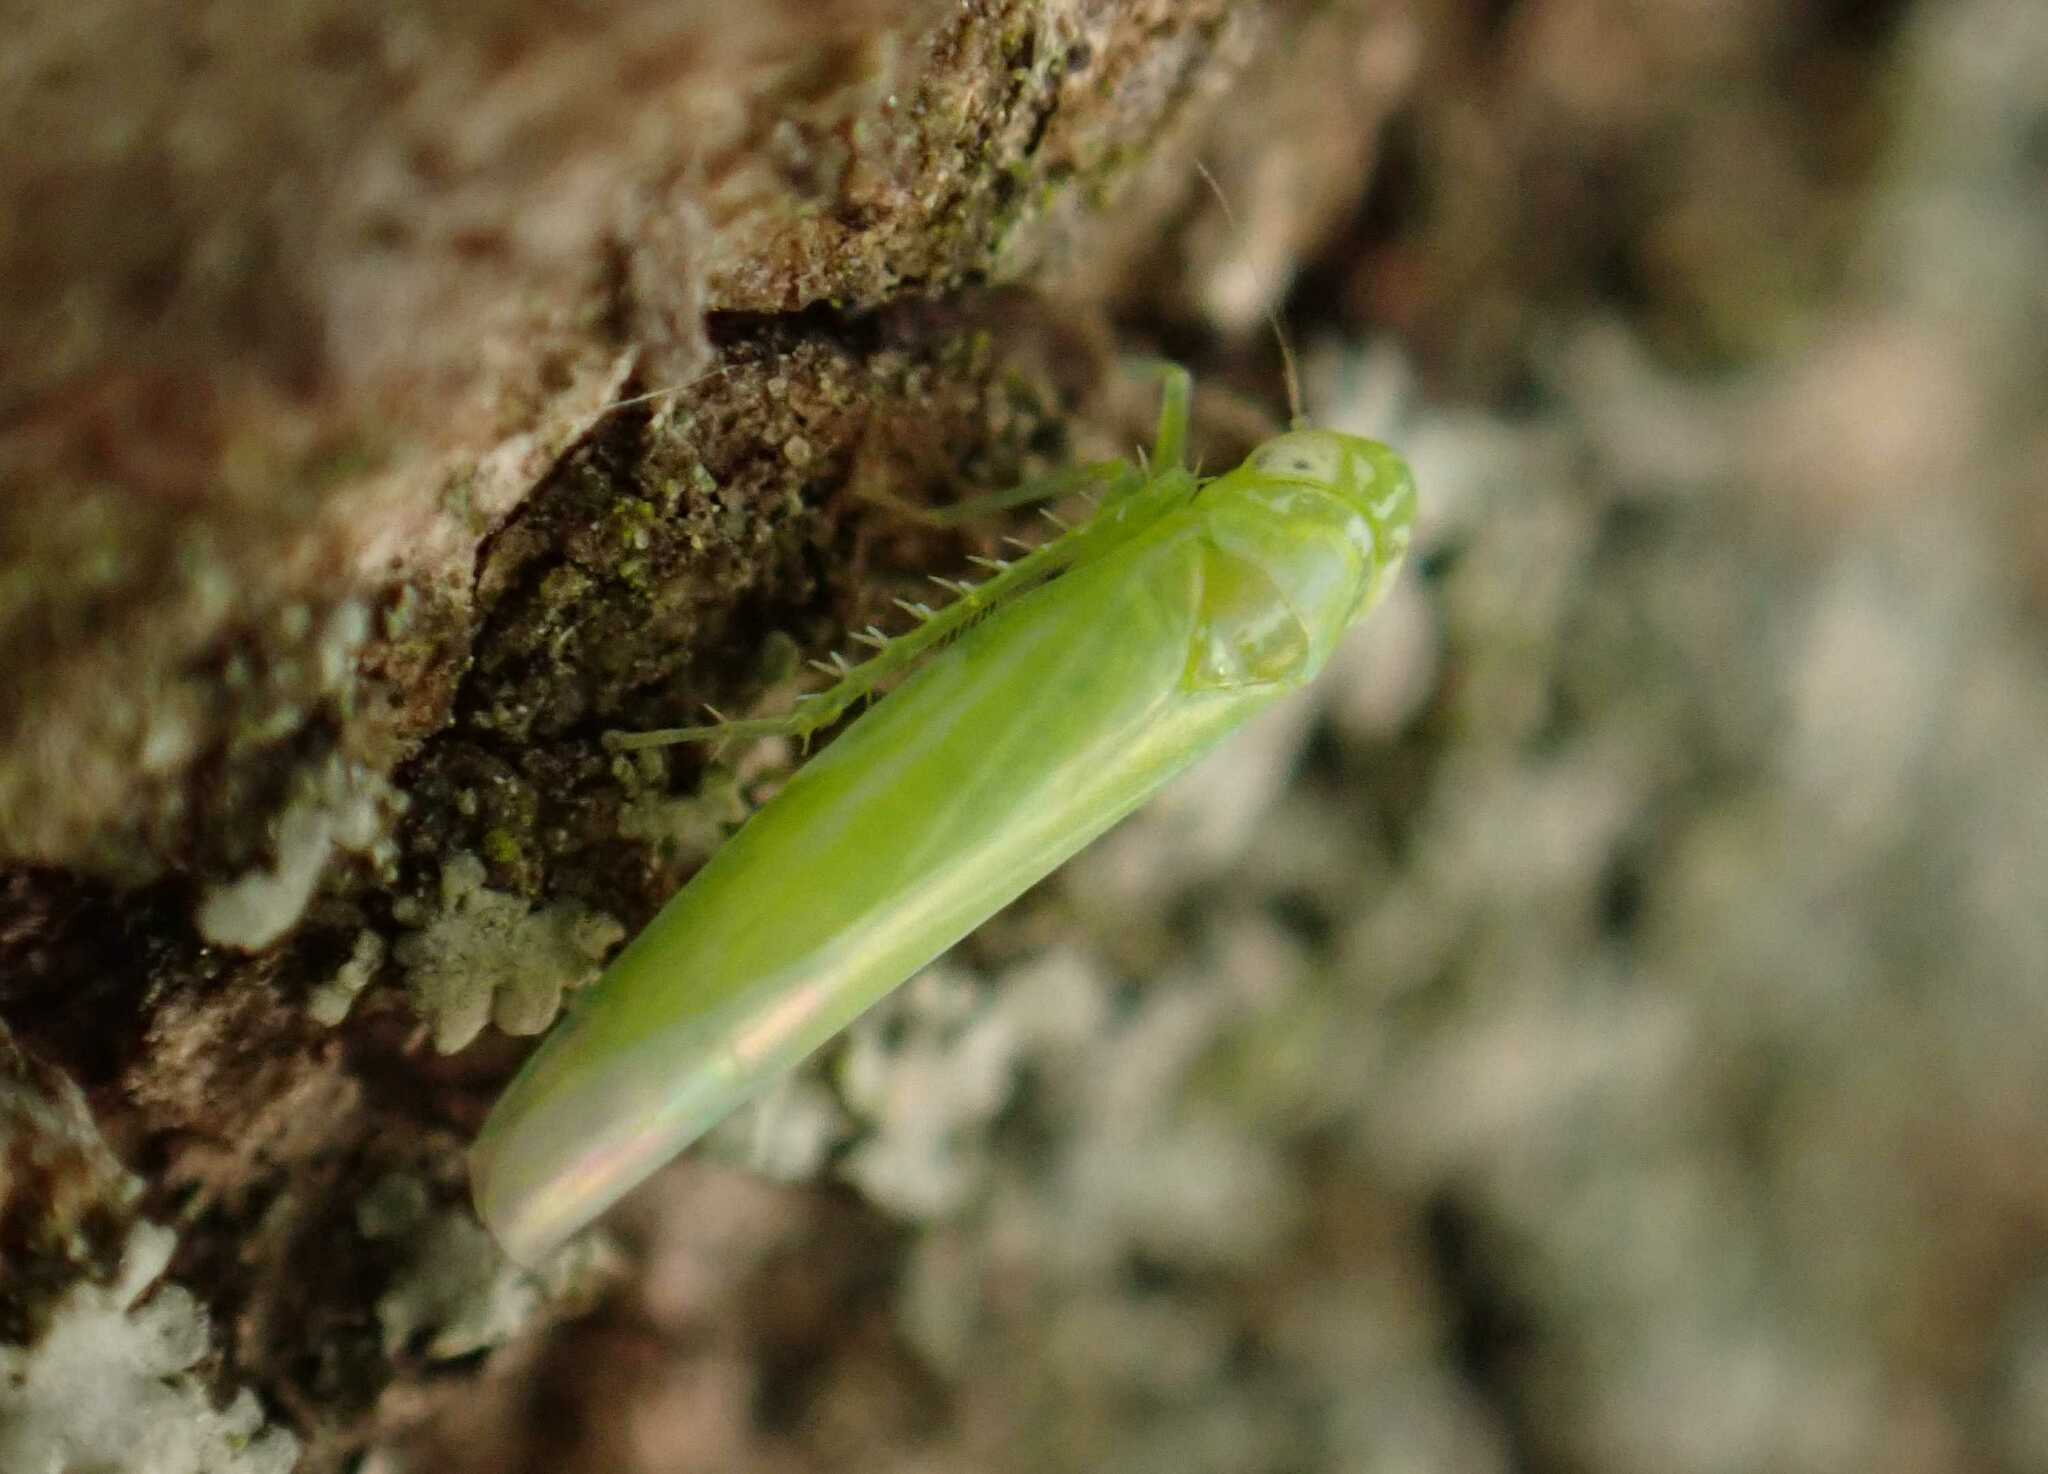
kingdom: Animalia
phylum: Arthropoda
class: Insecta
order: Hemiptera
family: Cicadellidae
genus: Hebata
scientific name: Hebata vitis
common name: The smaller green leafhopper
